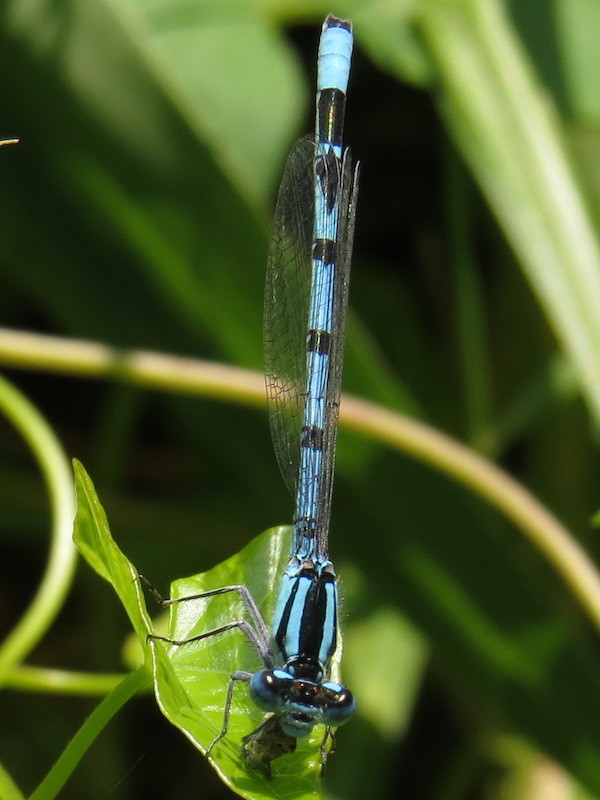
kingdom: Animalia
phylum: Arthropoda
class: Insecta
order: Odonata
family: Coenagrionidae
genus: Enallagma
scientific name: Enallagma cyathigerum
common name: Common blue damselfly
